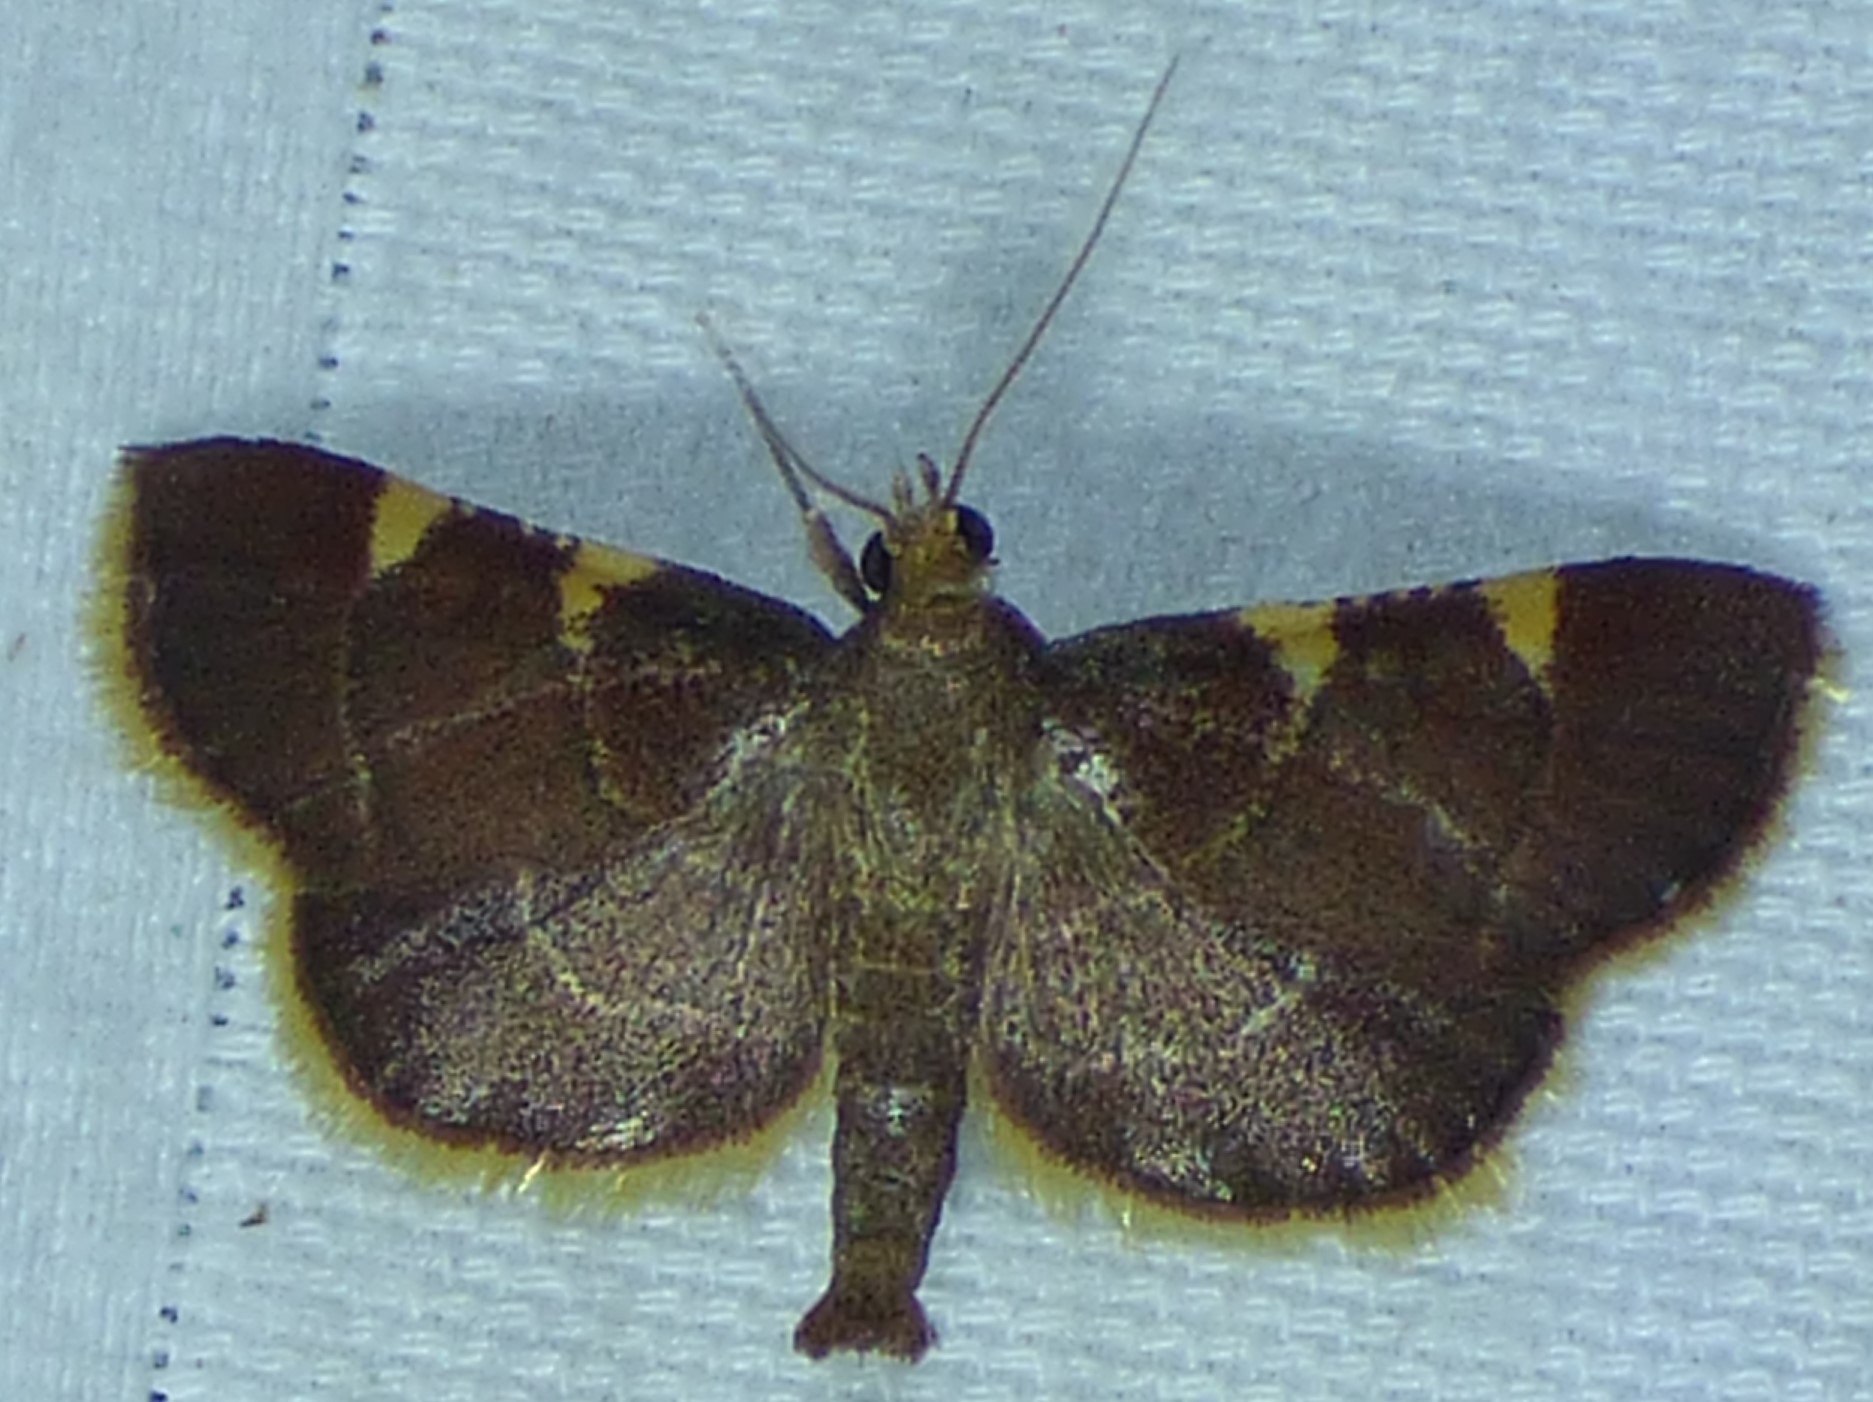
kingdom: Animalia
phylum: Arthropoda
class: Insecta
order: Lepidoptera
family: Pyralidae
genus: Hypsopygia
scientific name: Hypsopygia olinalis
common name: Yellow-fringed dolichomia moth
